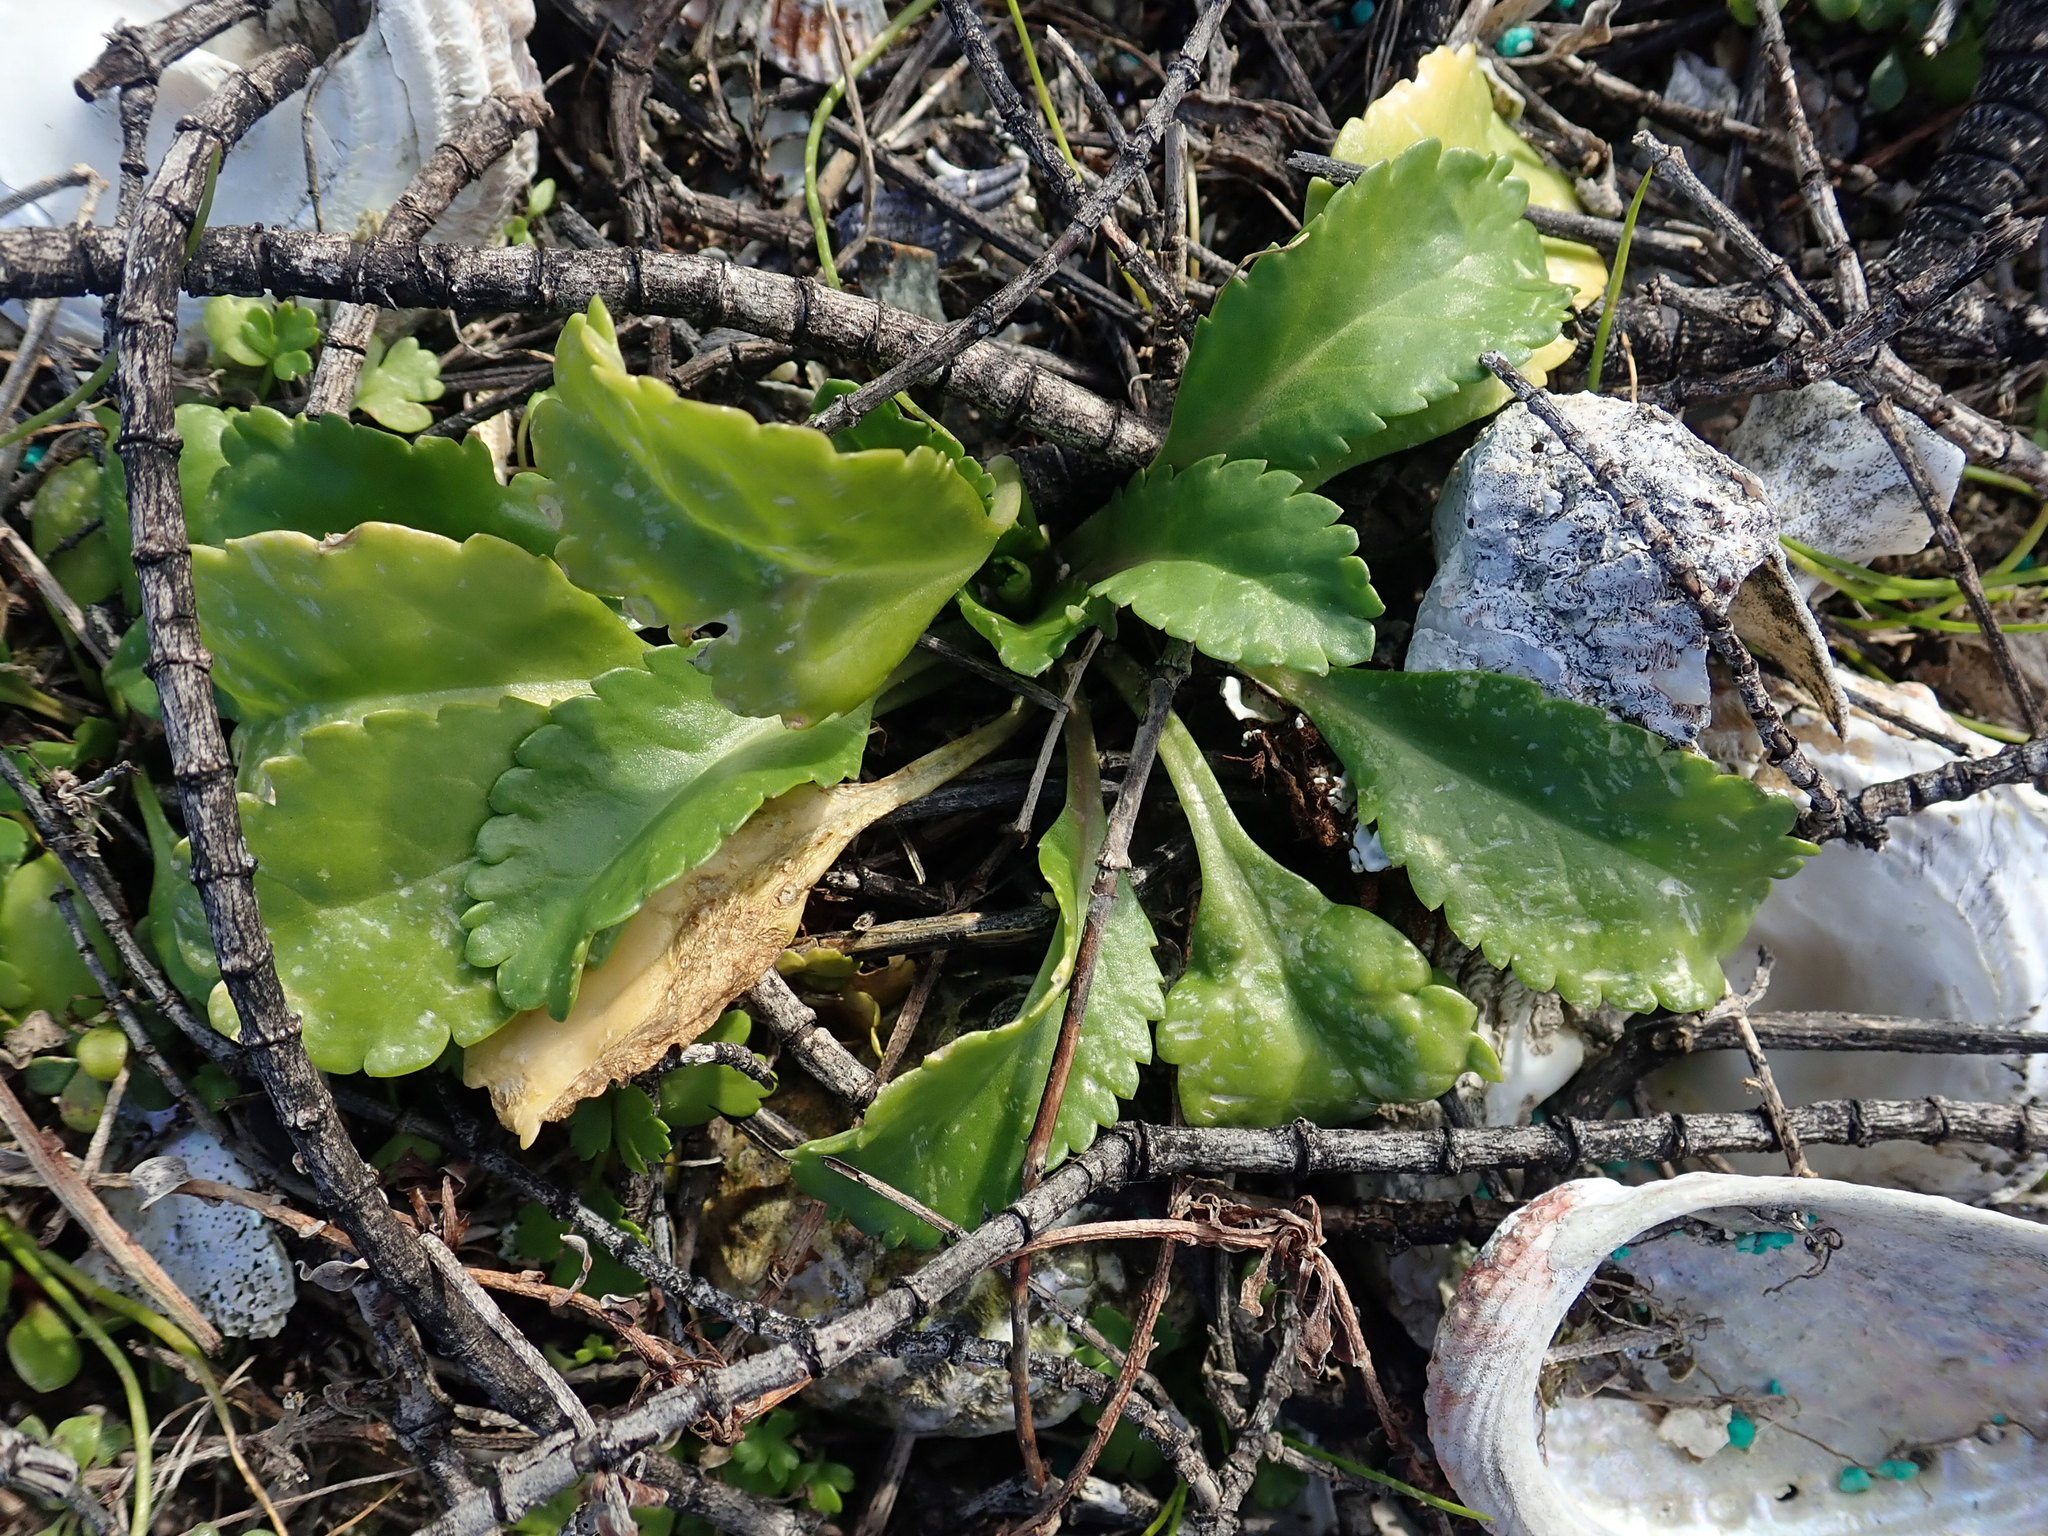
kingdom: Plantae
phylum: Tracheophyta
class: Magnoliopsida
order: Brassicales
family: Brassicaceae
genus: Lepidium
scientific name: Lepidium rekohuense
